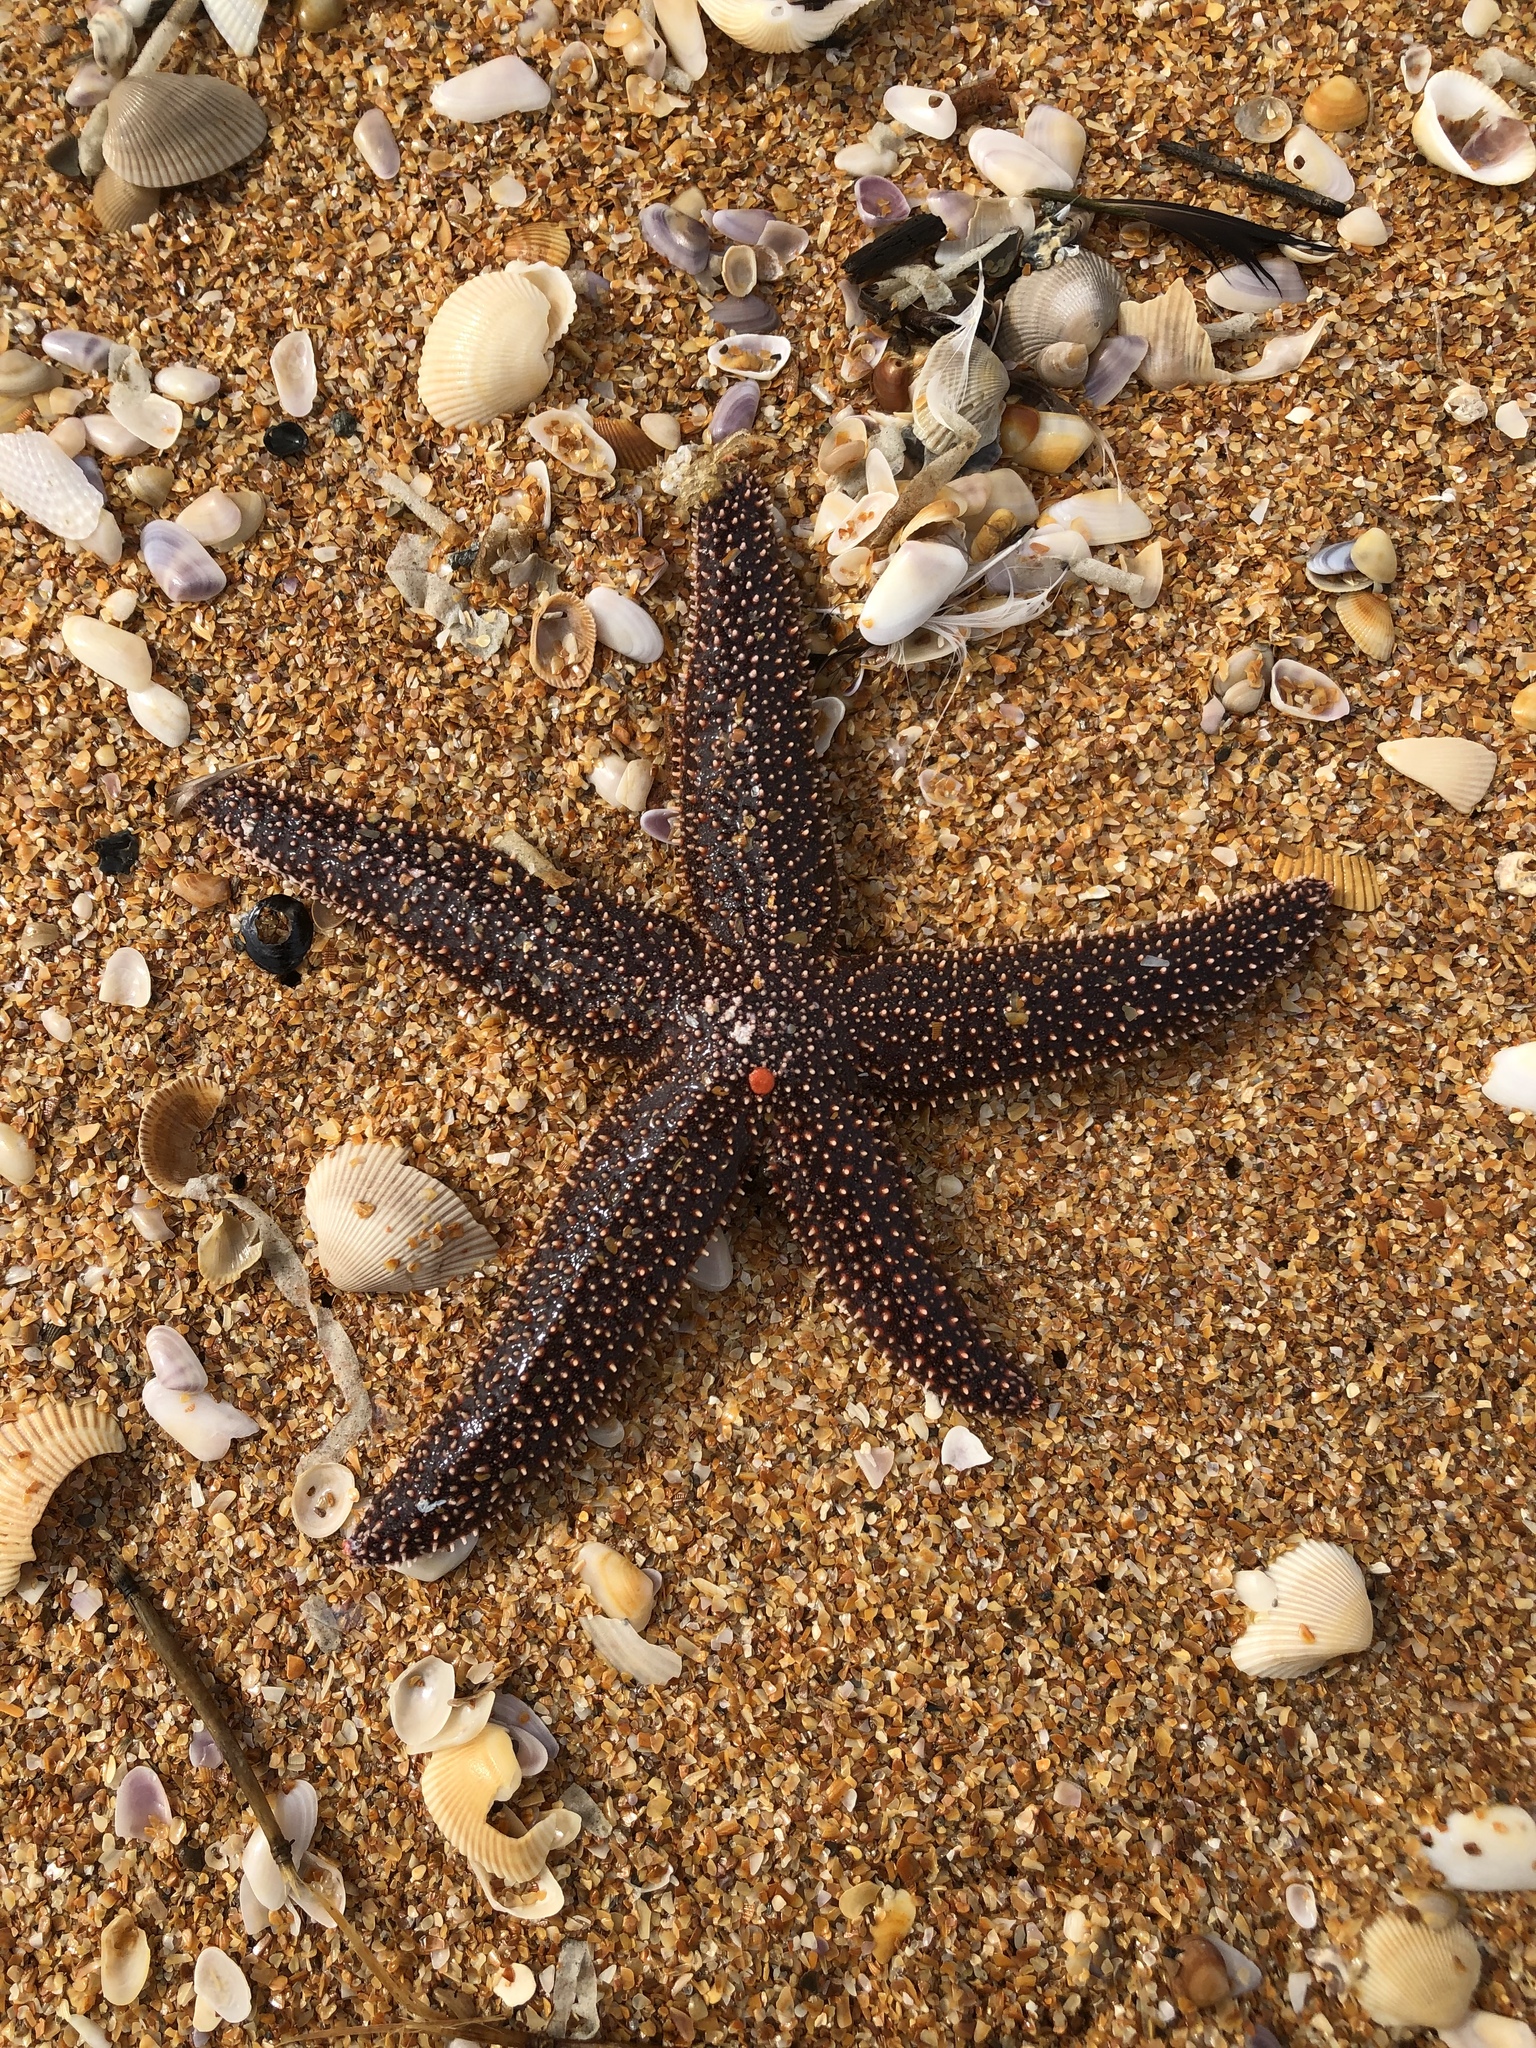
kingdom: Animalia
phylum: Echinodermata
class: Asteroidea
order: Forcipulatida
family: Asteriidae
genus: Asterias
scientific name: Asterias forbesi
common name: Forbes's sea star
